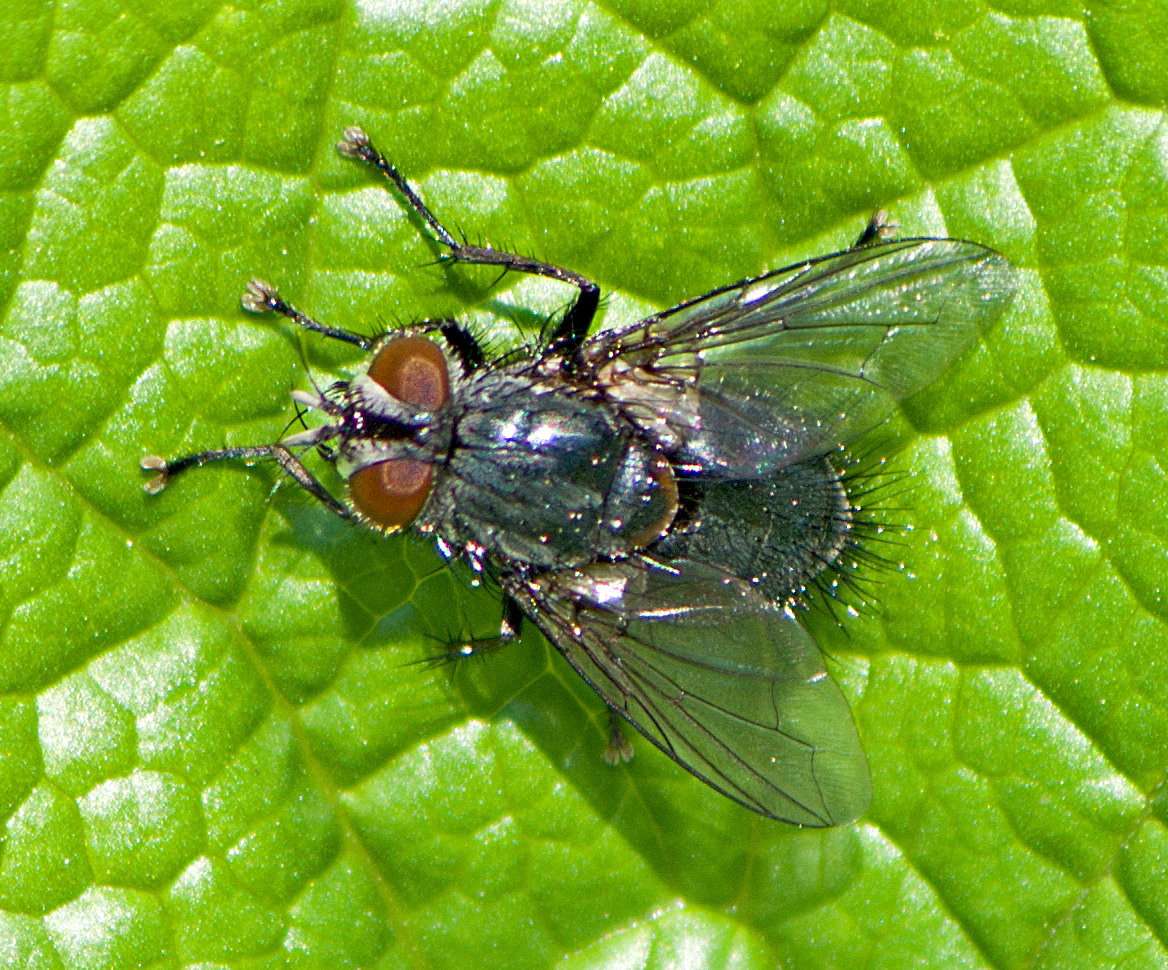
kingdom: Animalia
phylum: Arthropoda
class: Insecta
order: Diptera
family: Tachinidae
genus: Pales
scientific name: Pales pavida
